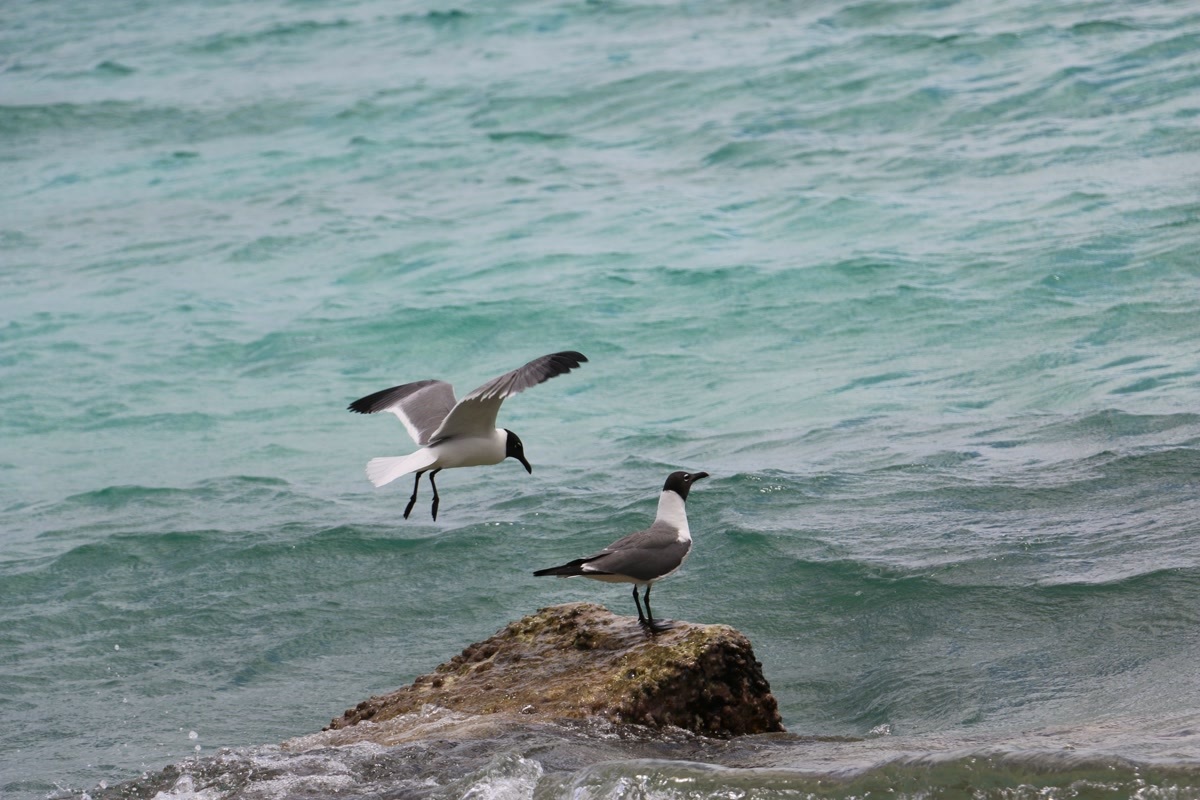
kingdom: Animalia
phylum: Chordata
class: Aves
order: Charadriiformes
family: Laridae
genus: Leucophaeus
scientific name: Leucophaeus atricilla
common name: Laughing gull
